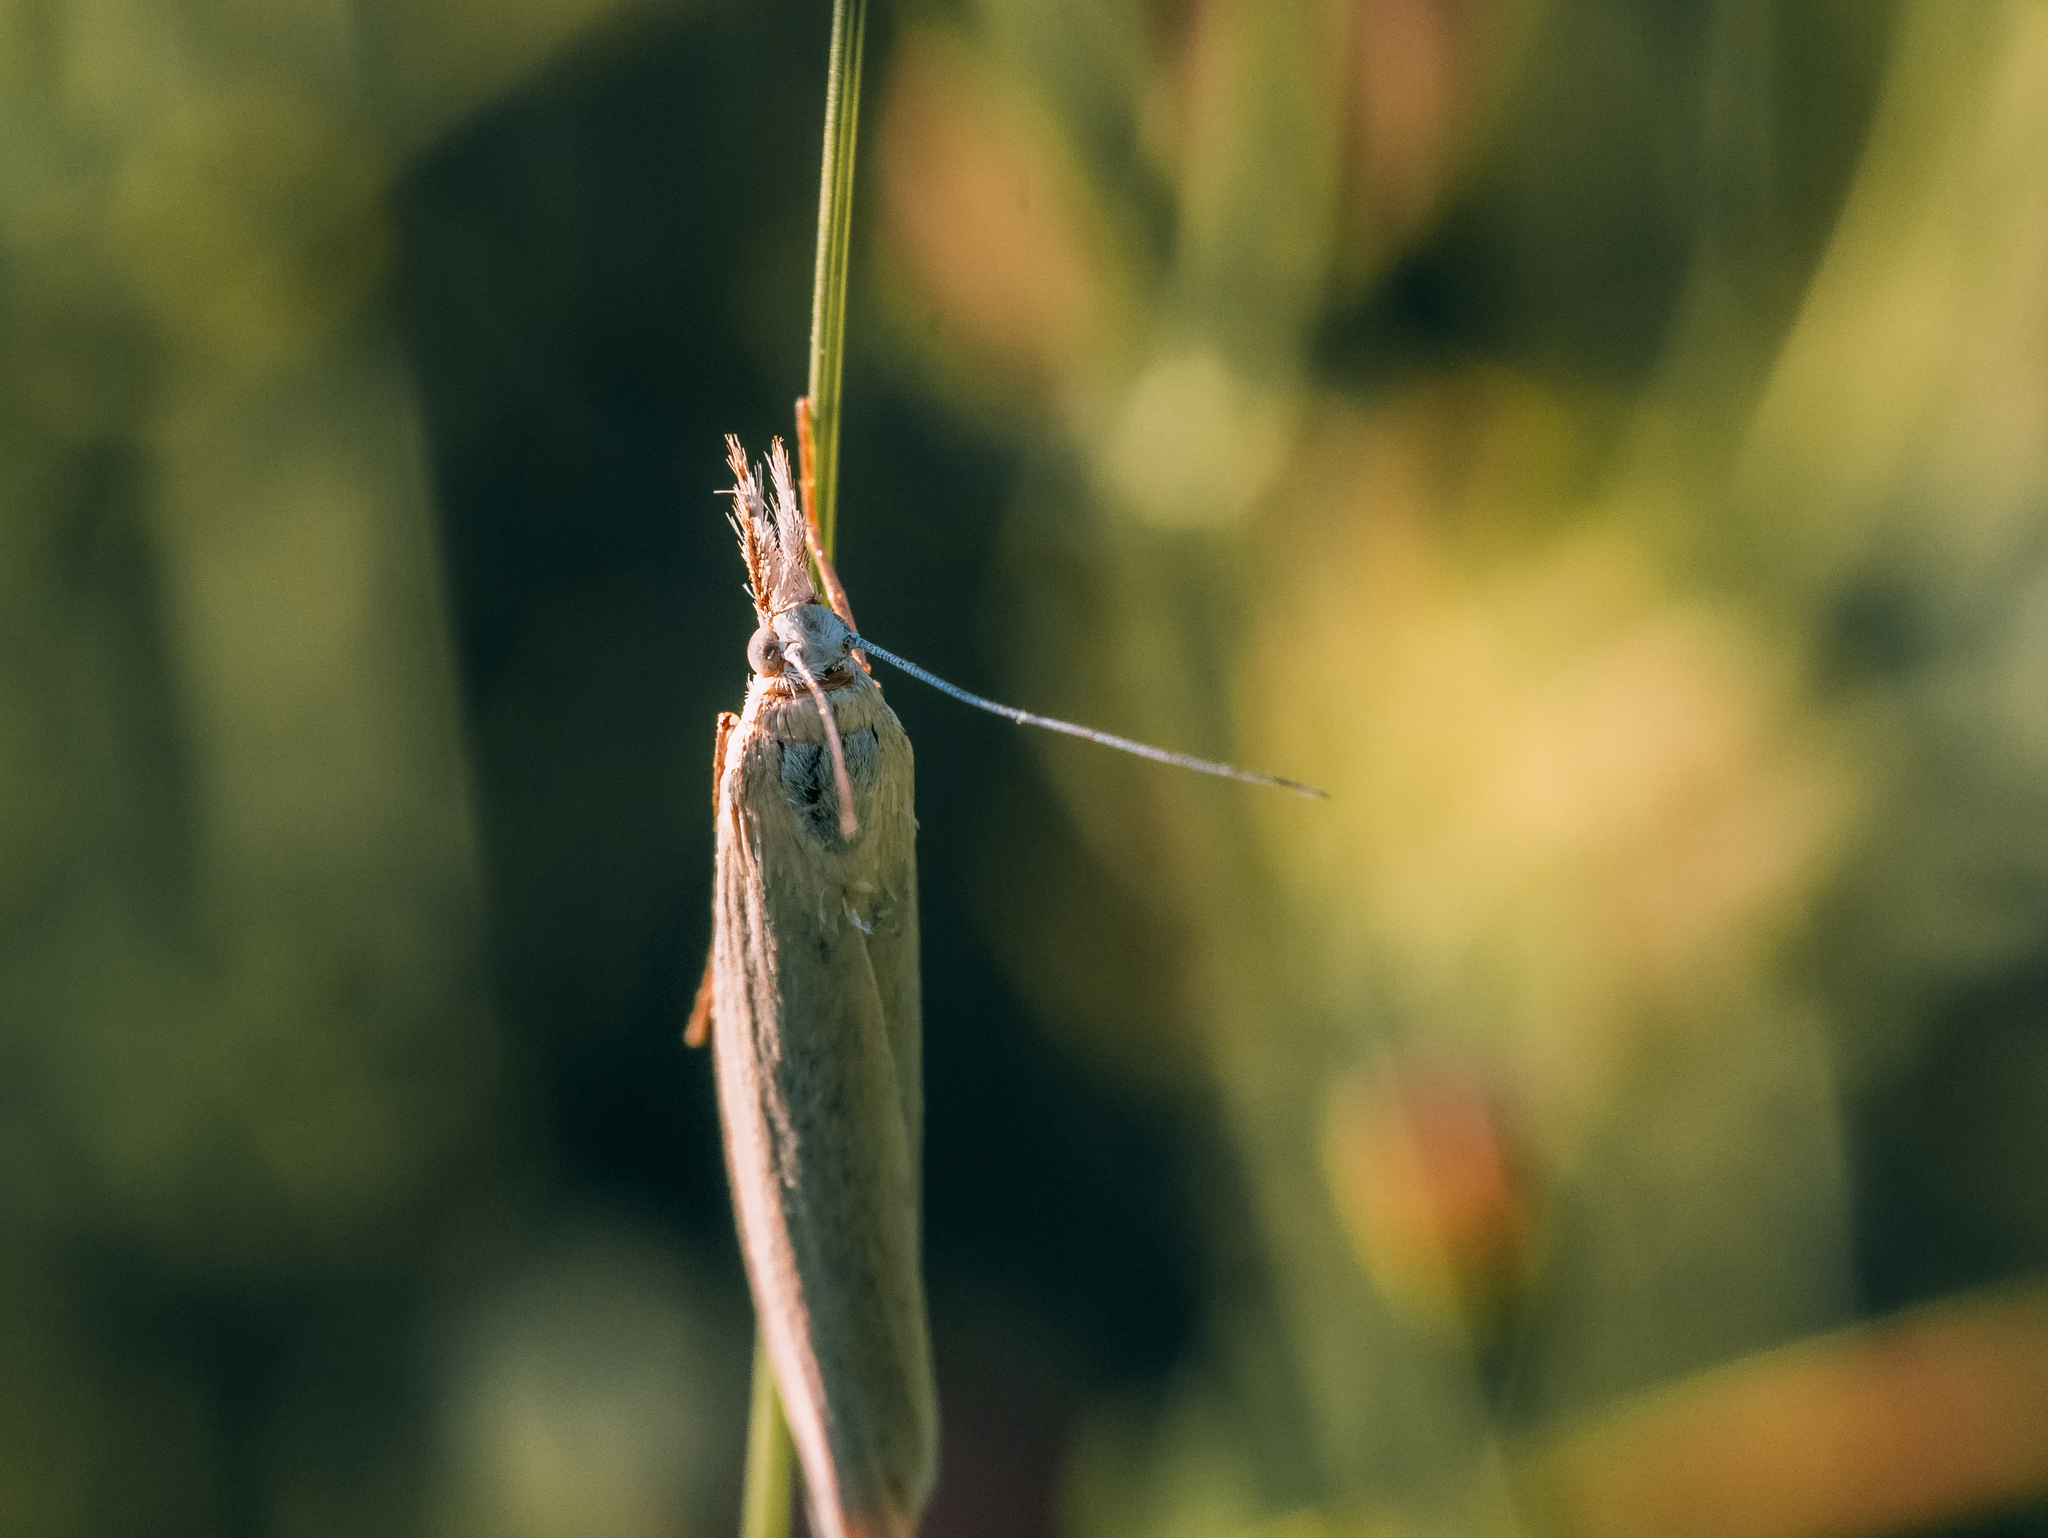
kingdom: Animalia
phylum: Arthropoda
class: Insecta
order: Lepidoptera
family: Crambidae
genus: Crambus
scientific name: Crambus perlellus
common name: Yellow satin veneer
